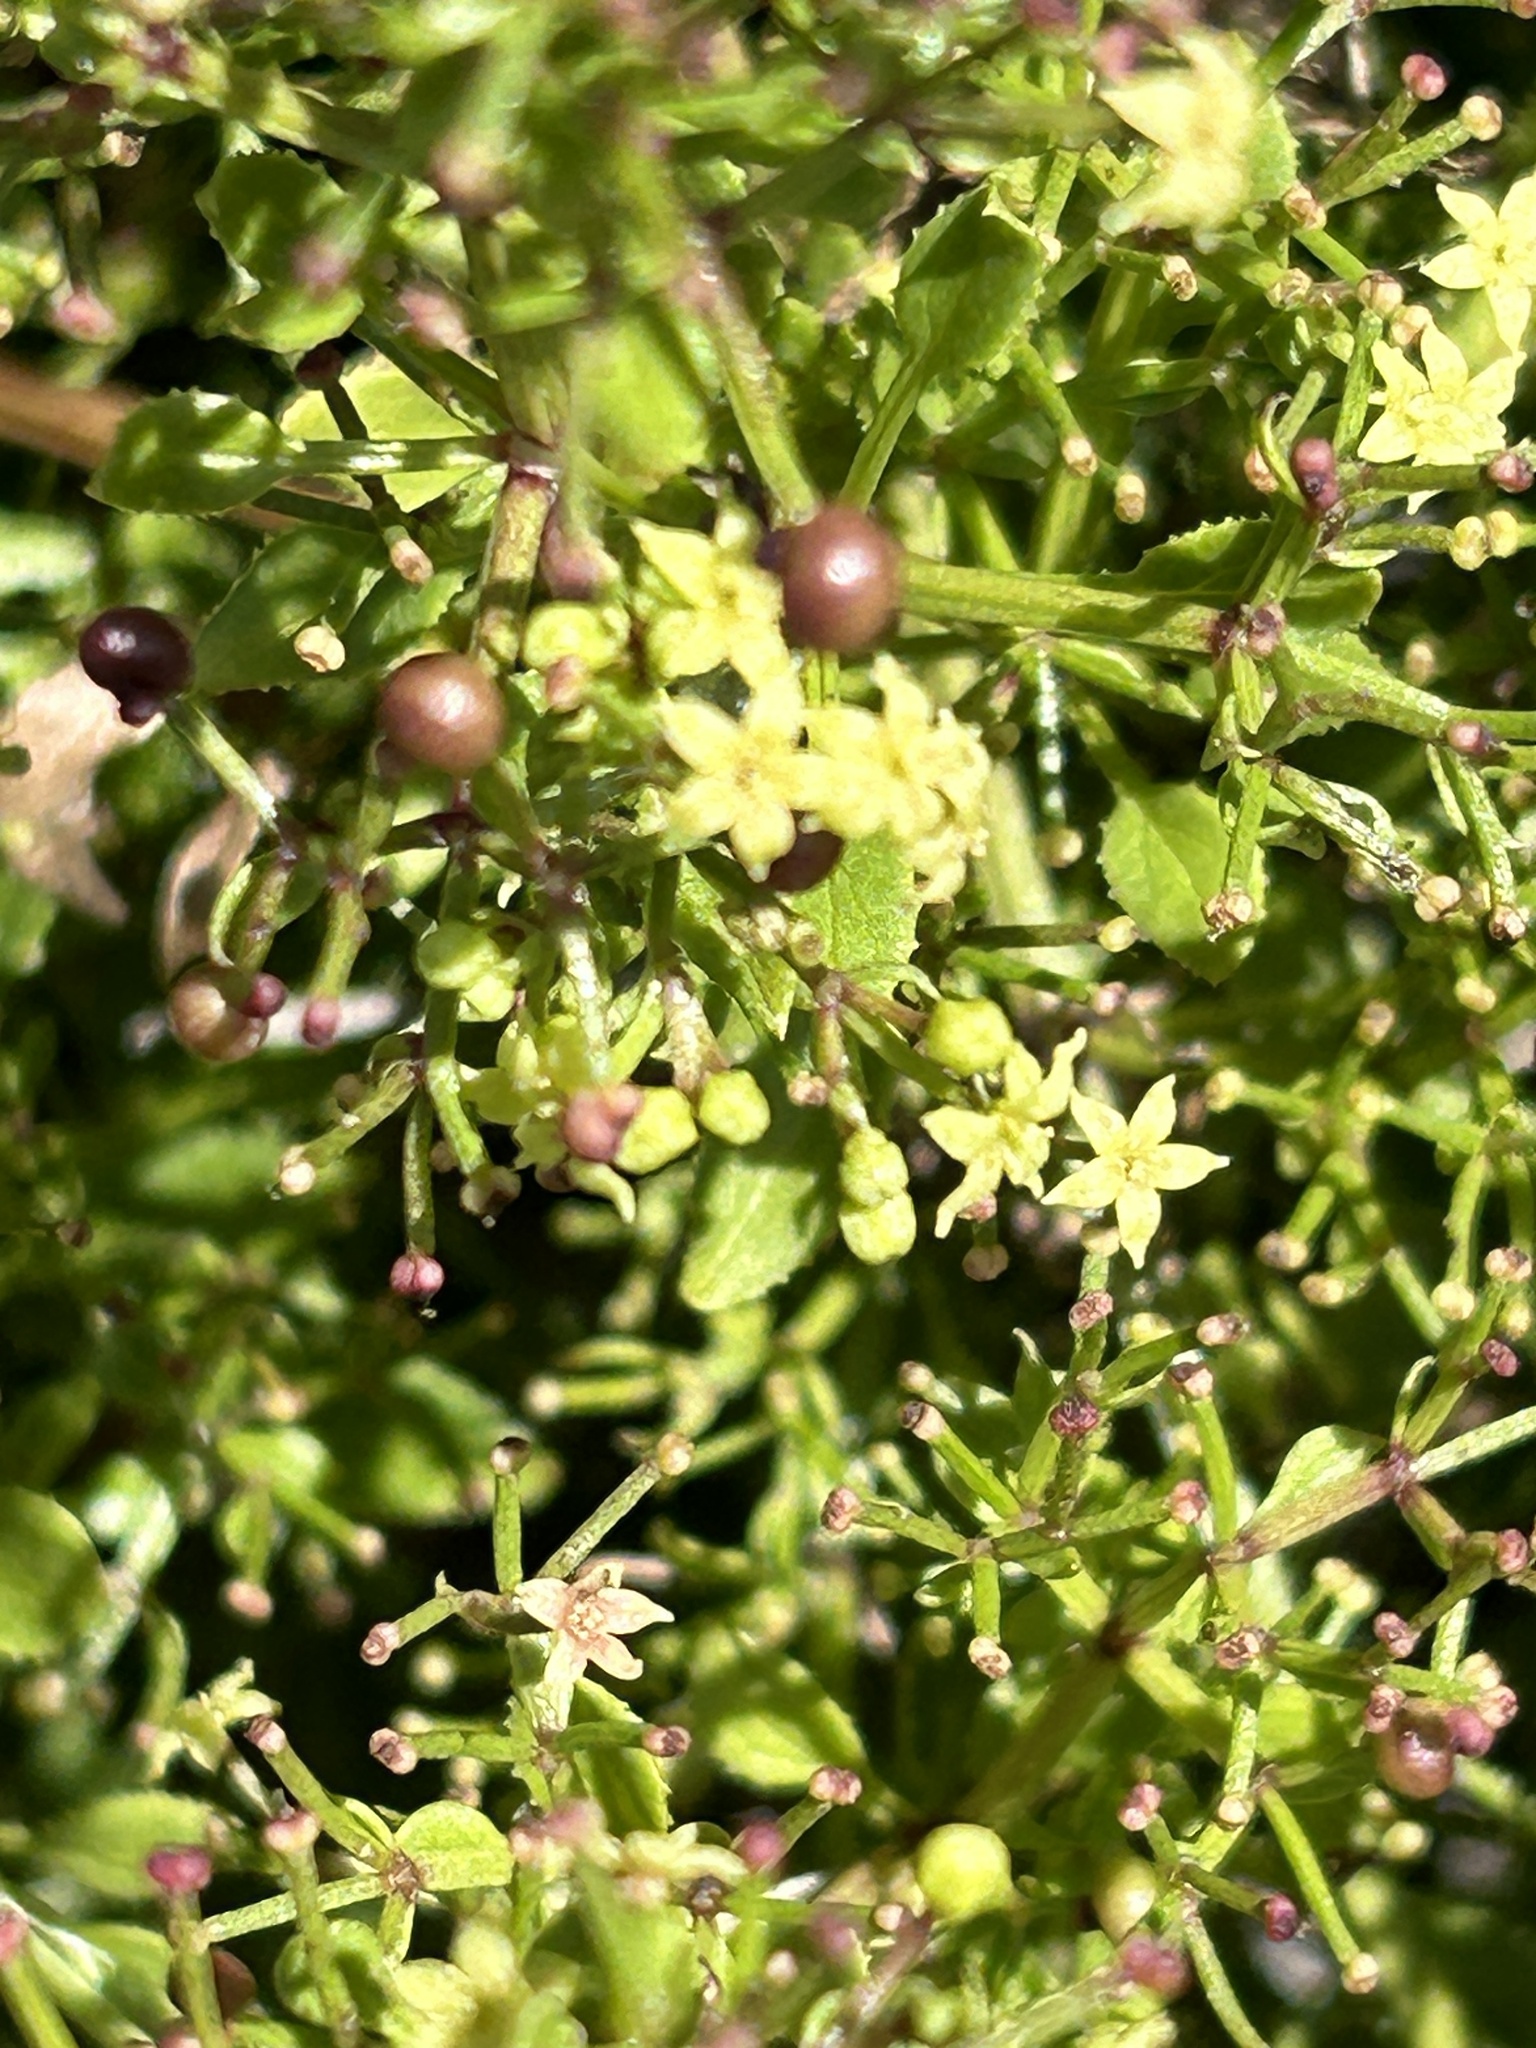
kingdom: Plantae
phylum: Tracheophyta
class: Magnoliopsida
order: Gentianales
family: Rubiaceae
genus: Rubia
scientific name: Rubia petiolaris
